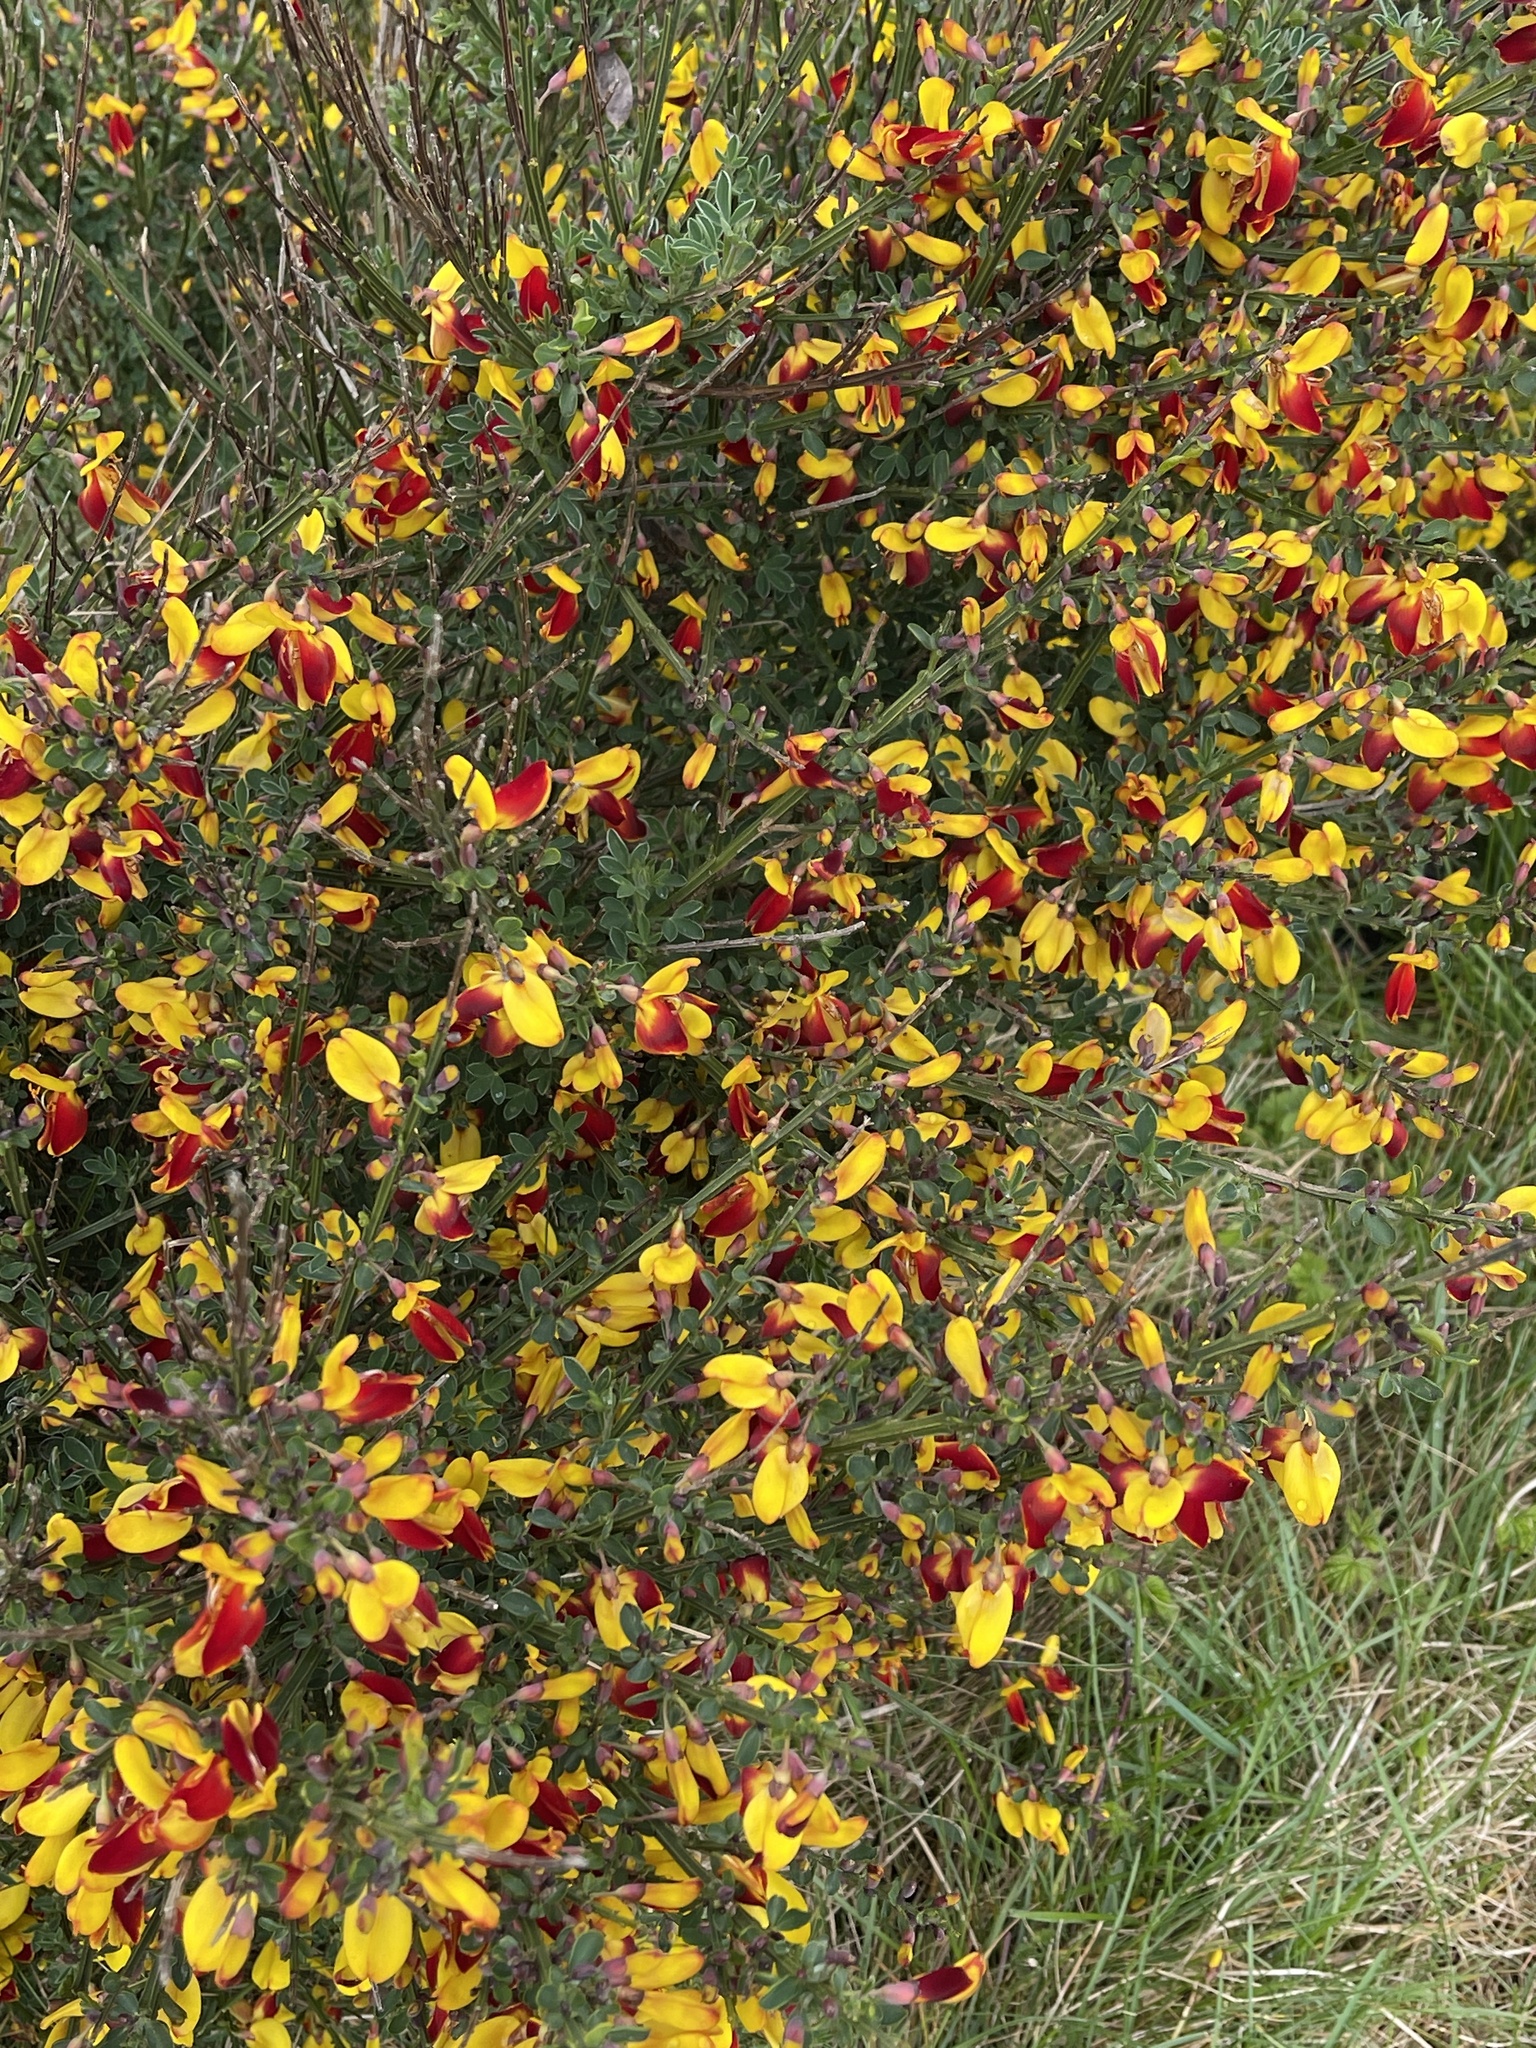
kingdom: Plantae
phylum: Tracheophyta
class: Magnoliopsida
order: Fabales
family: Fabaceae
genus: Cytisus
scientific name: Cytisus scoparius
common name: Scotch broom
